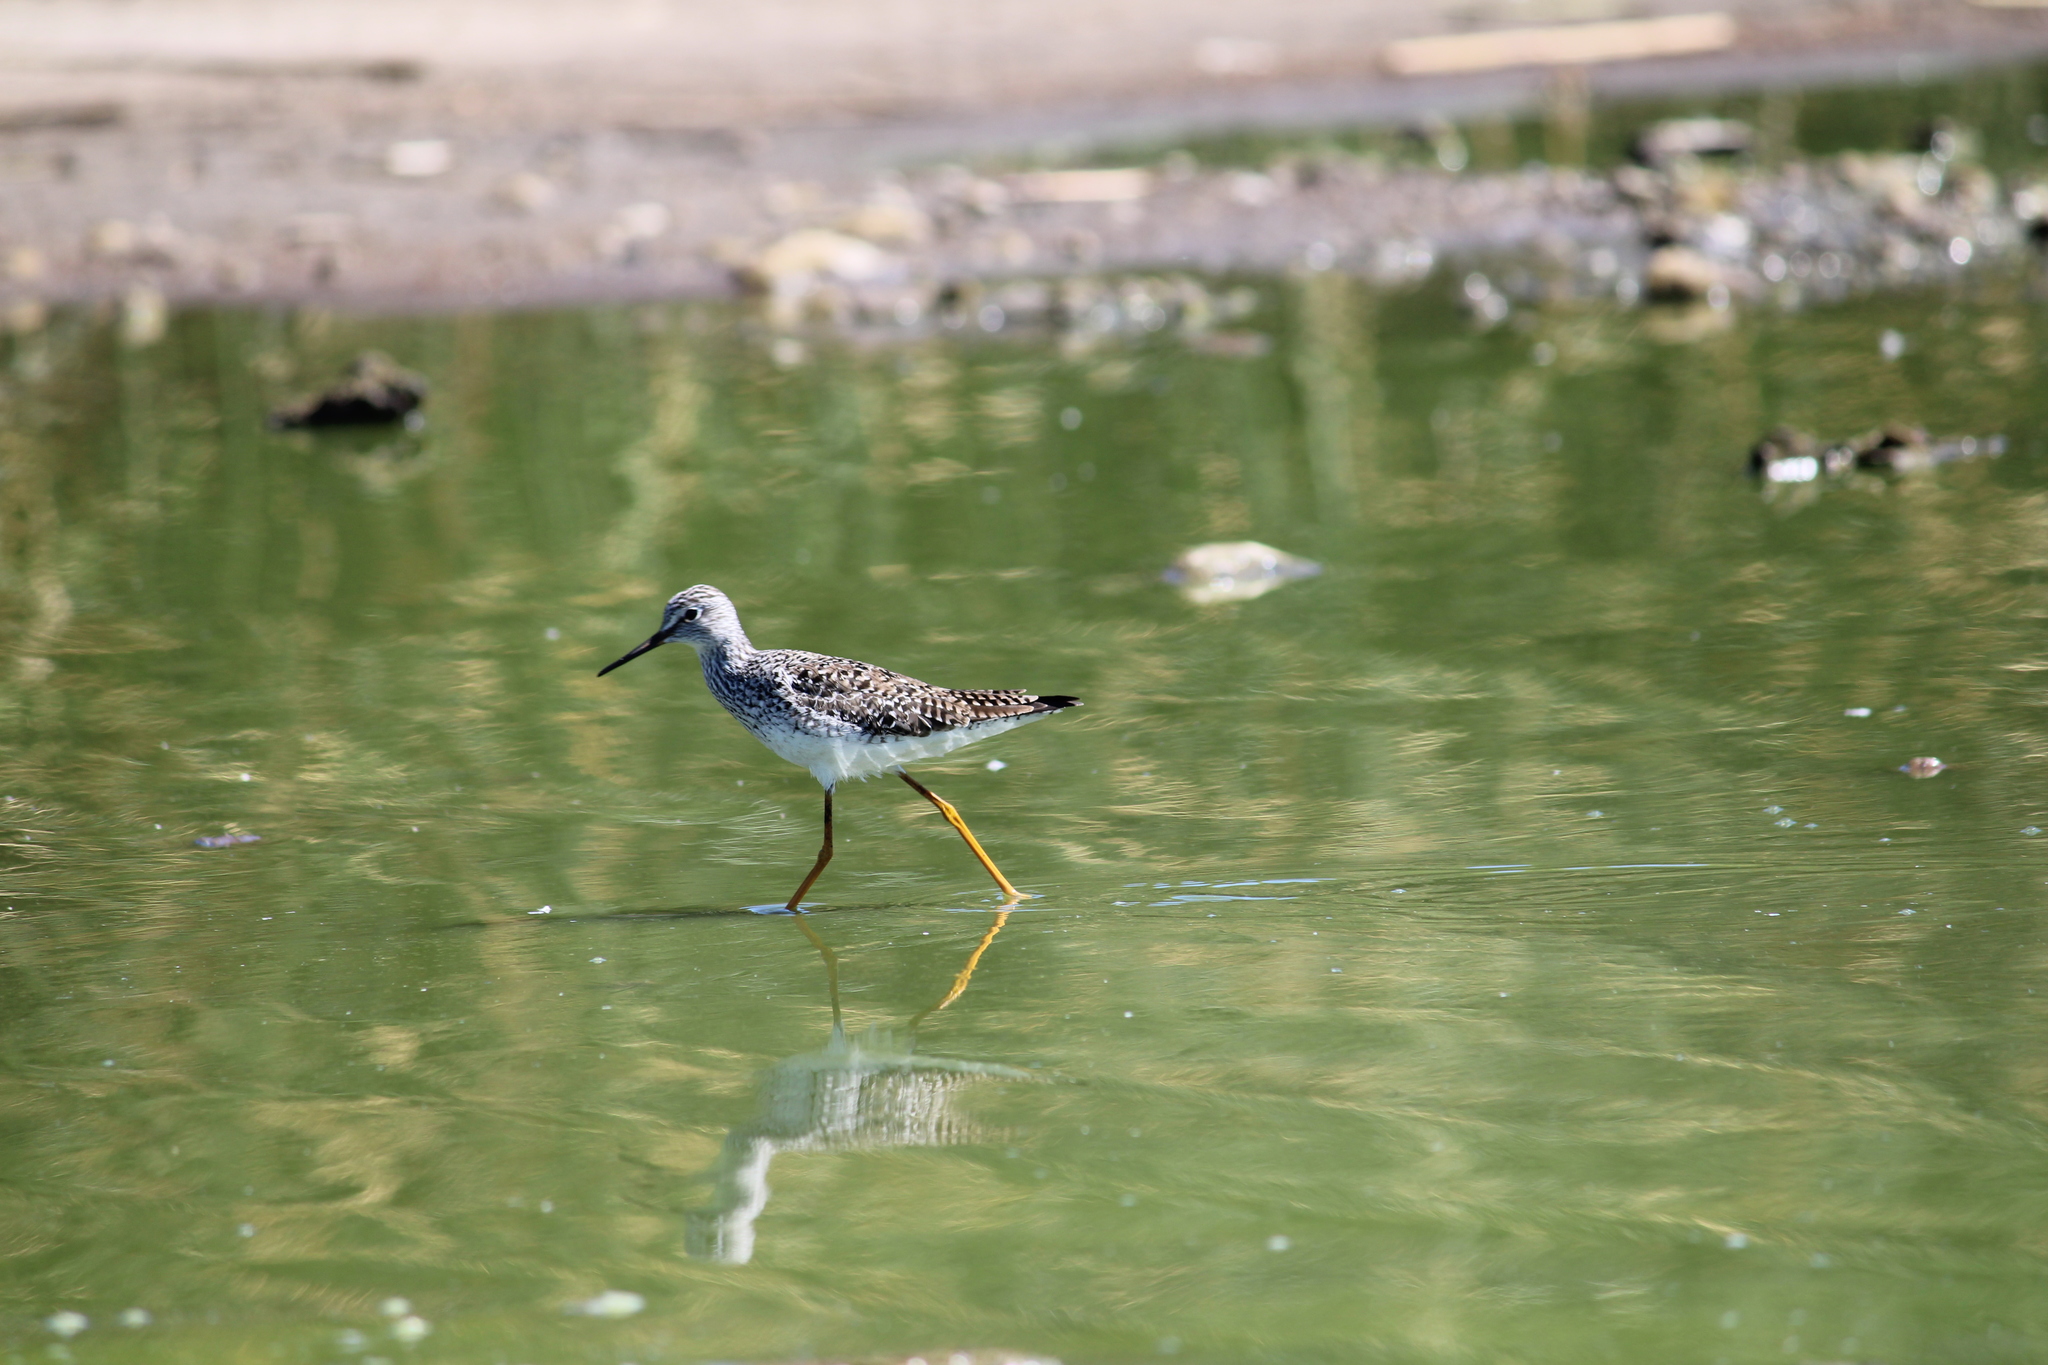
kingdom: Animalia
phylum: Chordata
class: Aves
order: Charadriiformes
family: Scolopacidae
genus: Tringa
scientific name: Tringa flavipes
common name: Lesser yellowlegs
